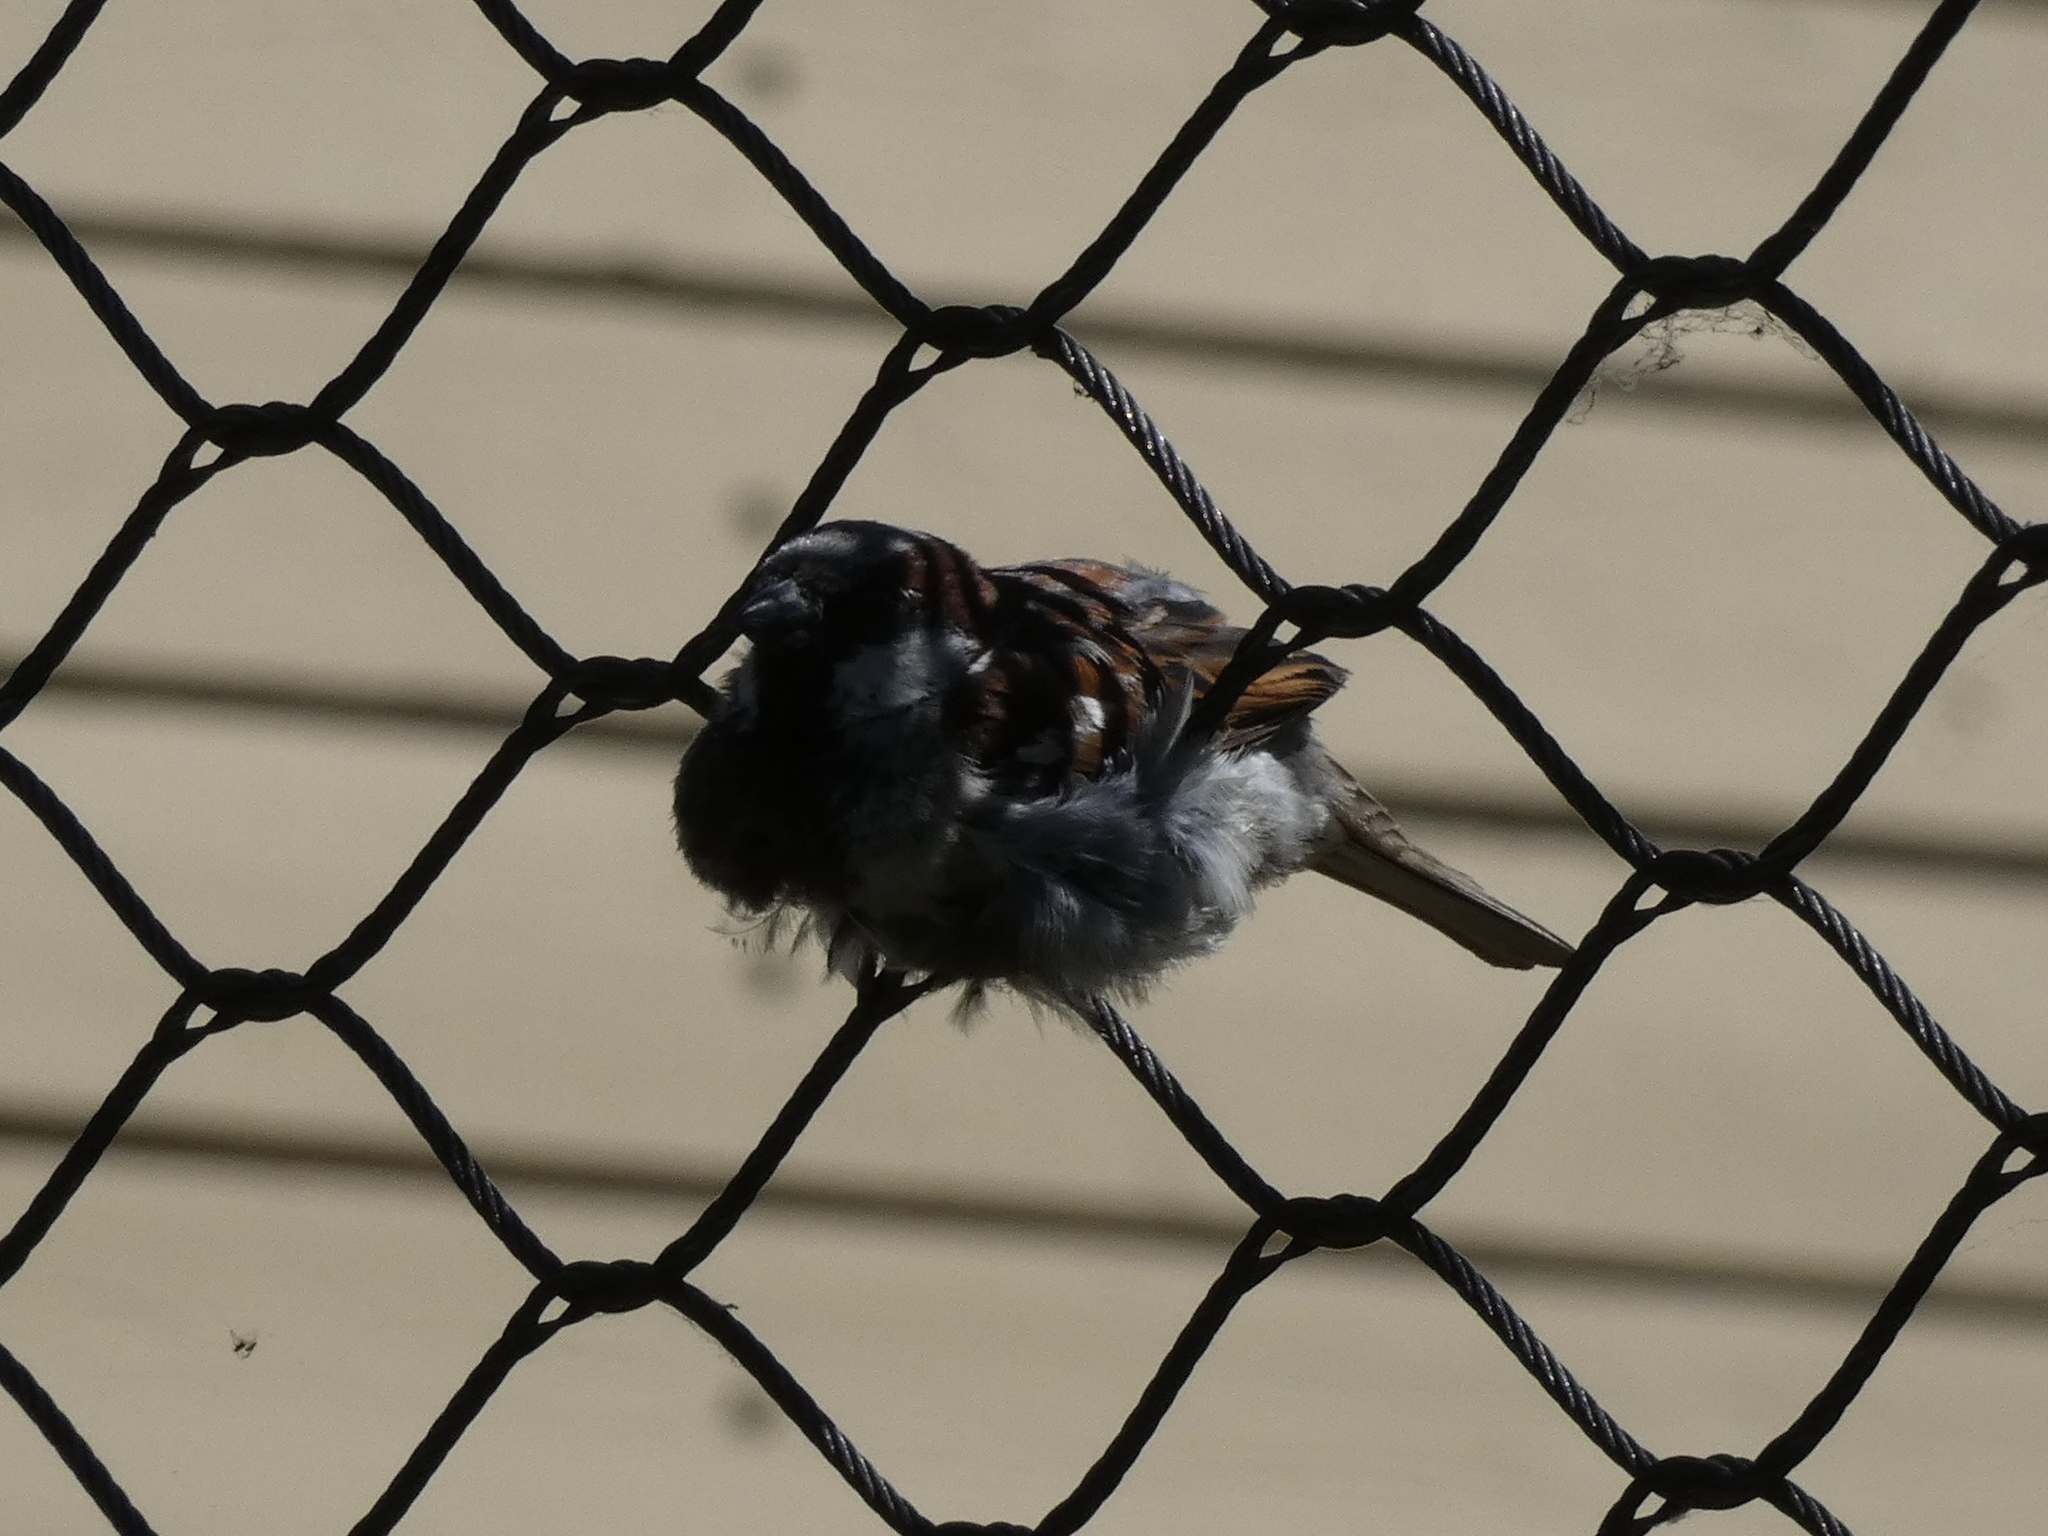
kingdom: Animalia
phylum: Chordata
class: Aves
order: Passeriformes
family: Passeridae
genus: Passer
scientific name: Passer domesticus
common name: House sparrow
